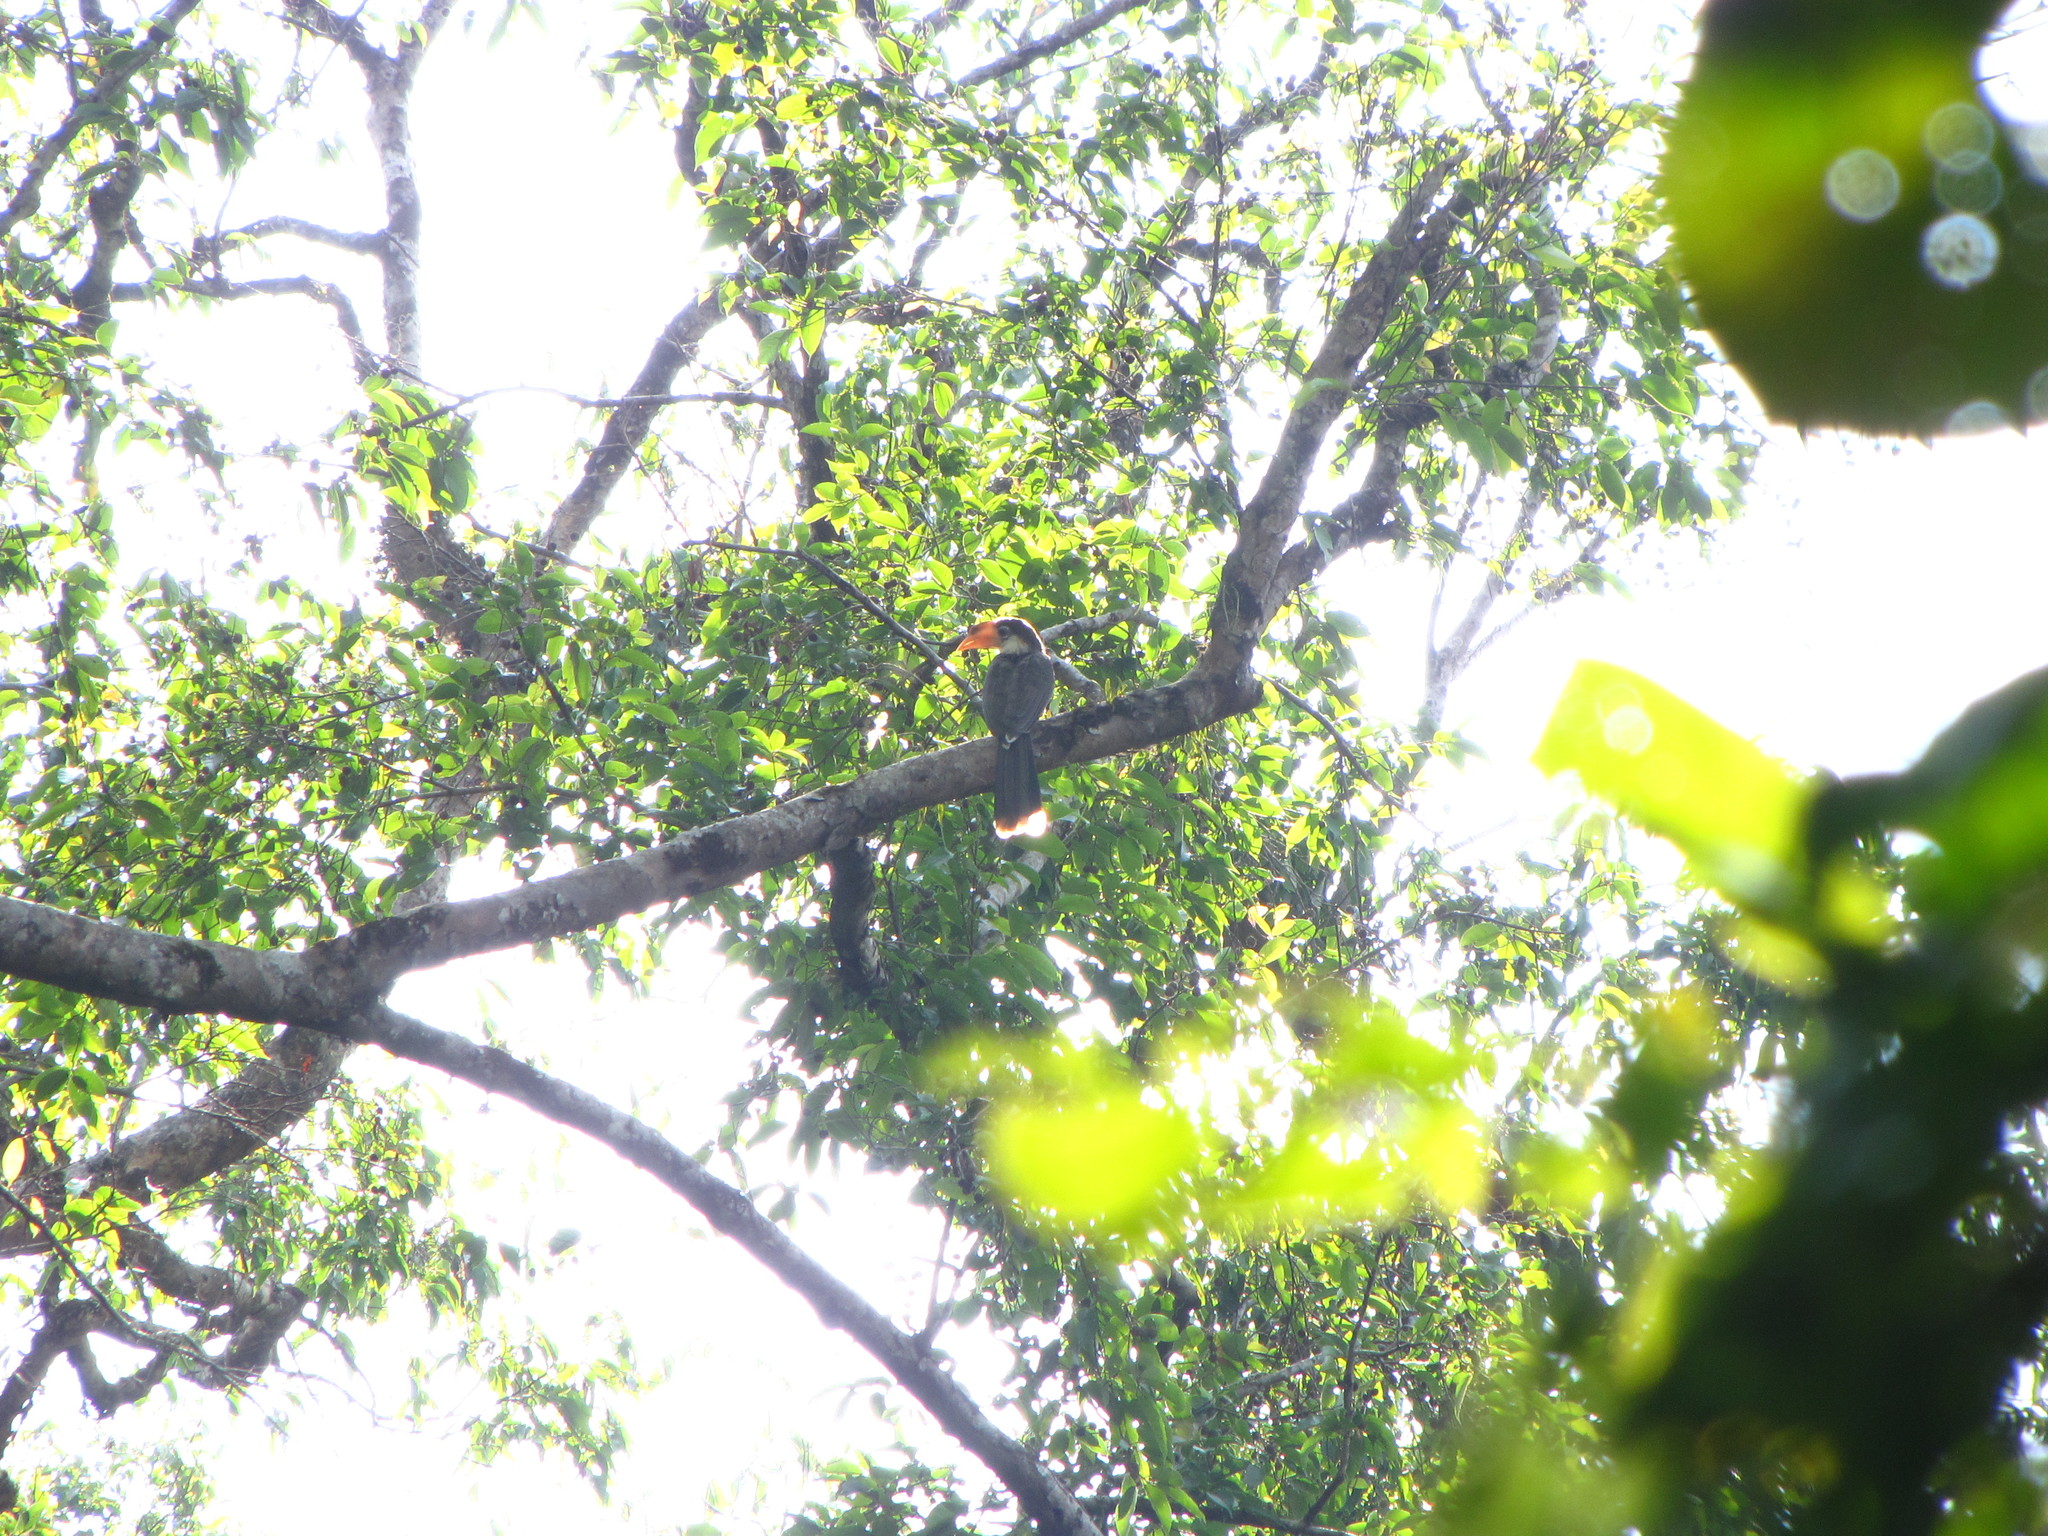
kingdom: Animalia
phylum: Chordata
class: Aves
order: Bucerotiformes
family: Bucerotidae
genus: Anorrhinus
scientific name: Anorrhinus austeni
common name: Austen's brown hornbill
